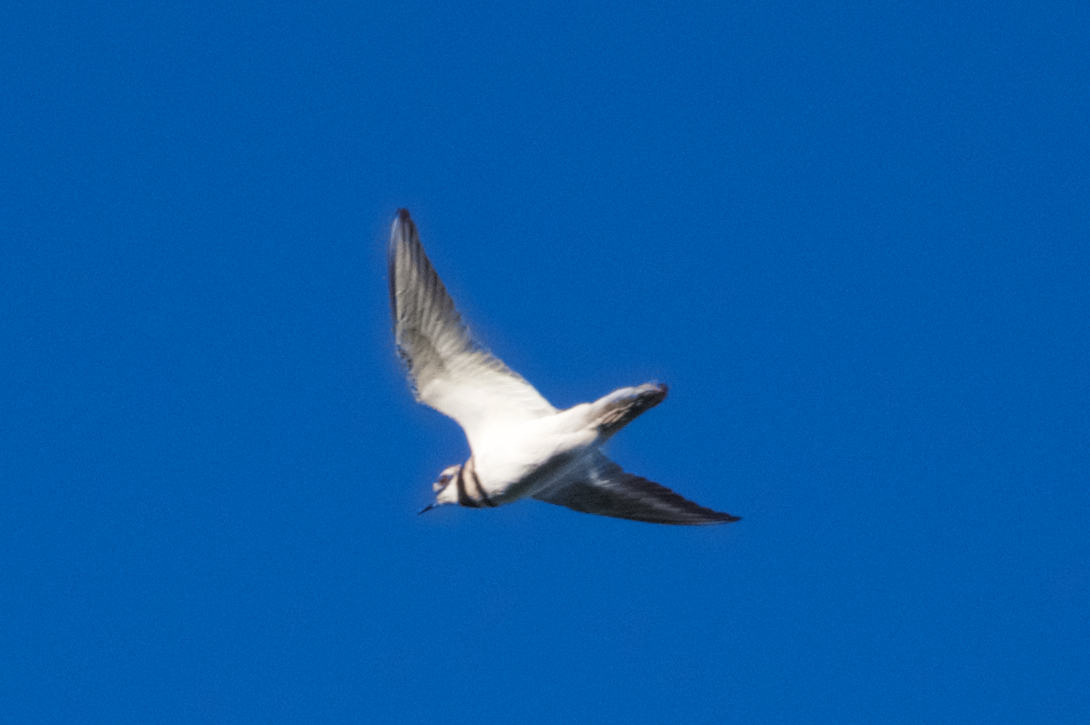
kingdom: Animalia
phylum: Chordata
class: Aves
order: Charadriiformes
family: Charadriidae
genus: Charadrius
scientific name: Charadrius vociferus
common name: Killdeer
